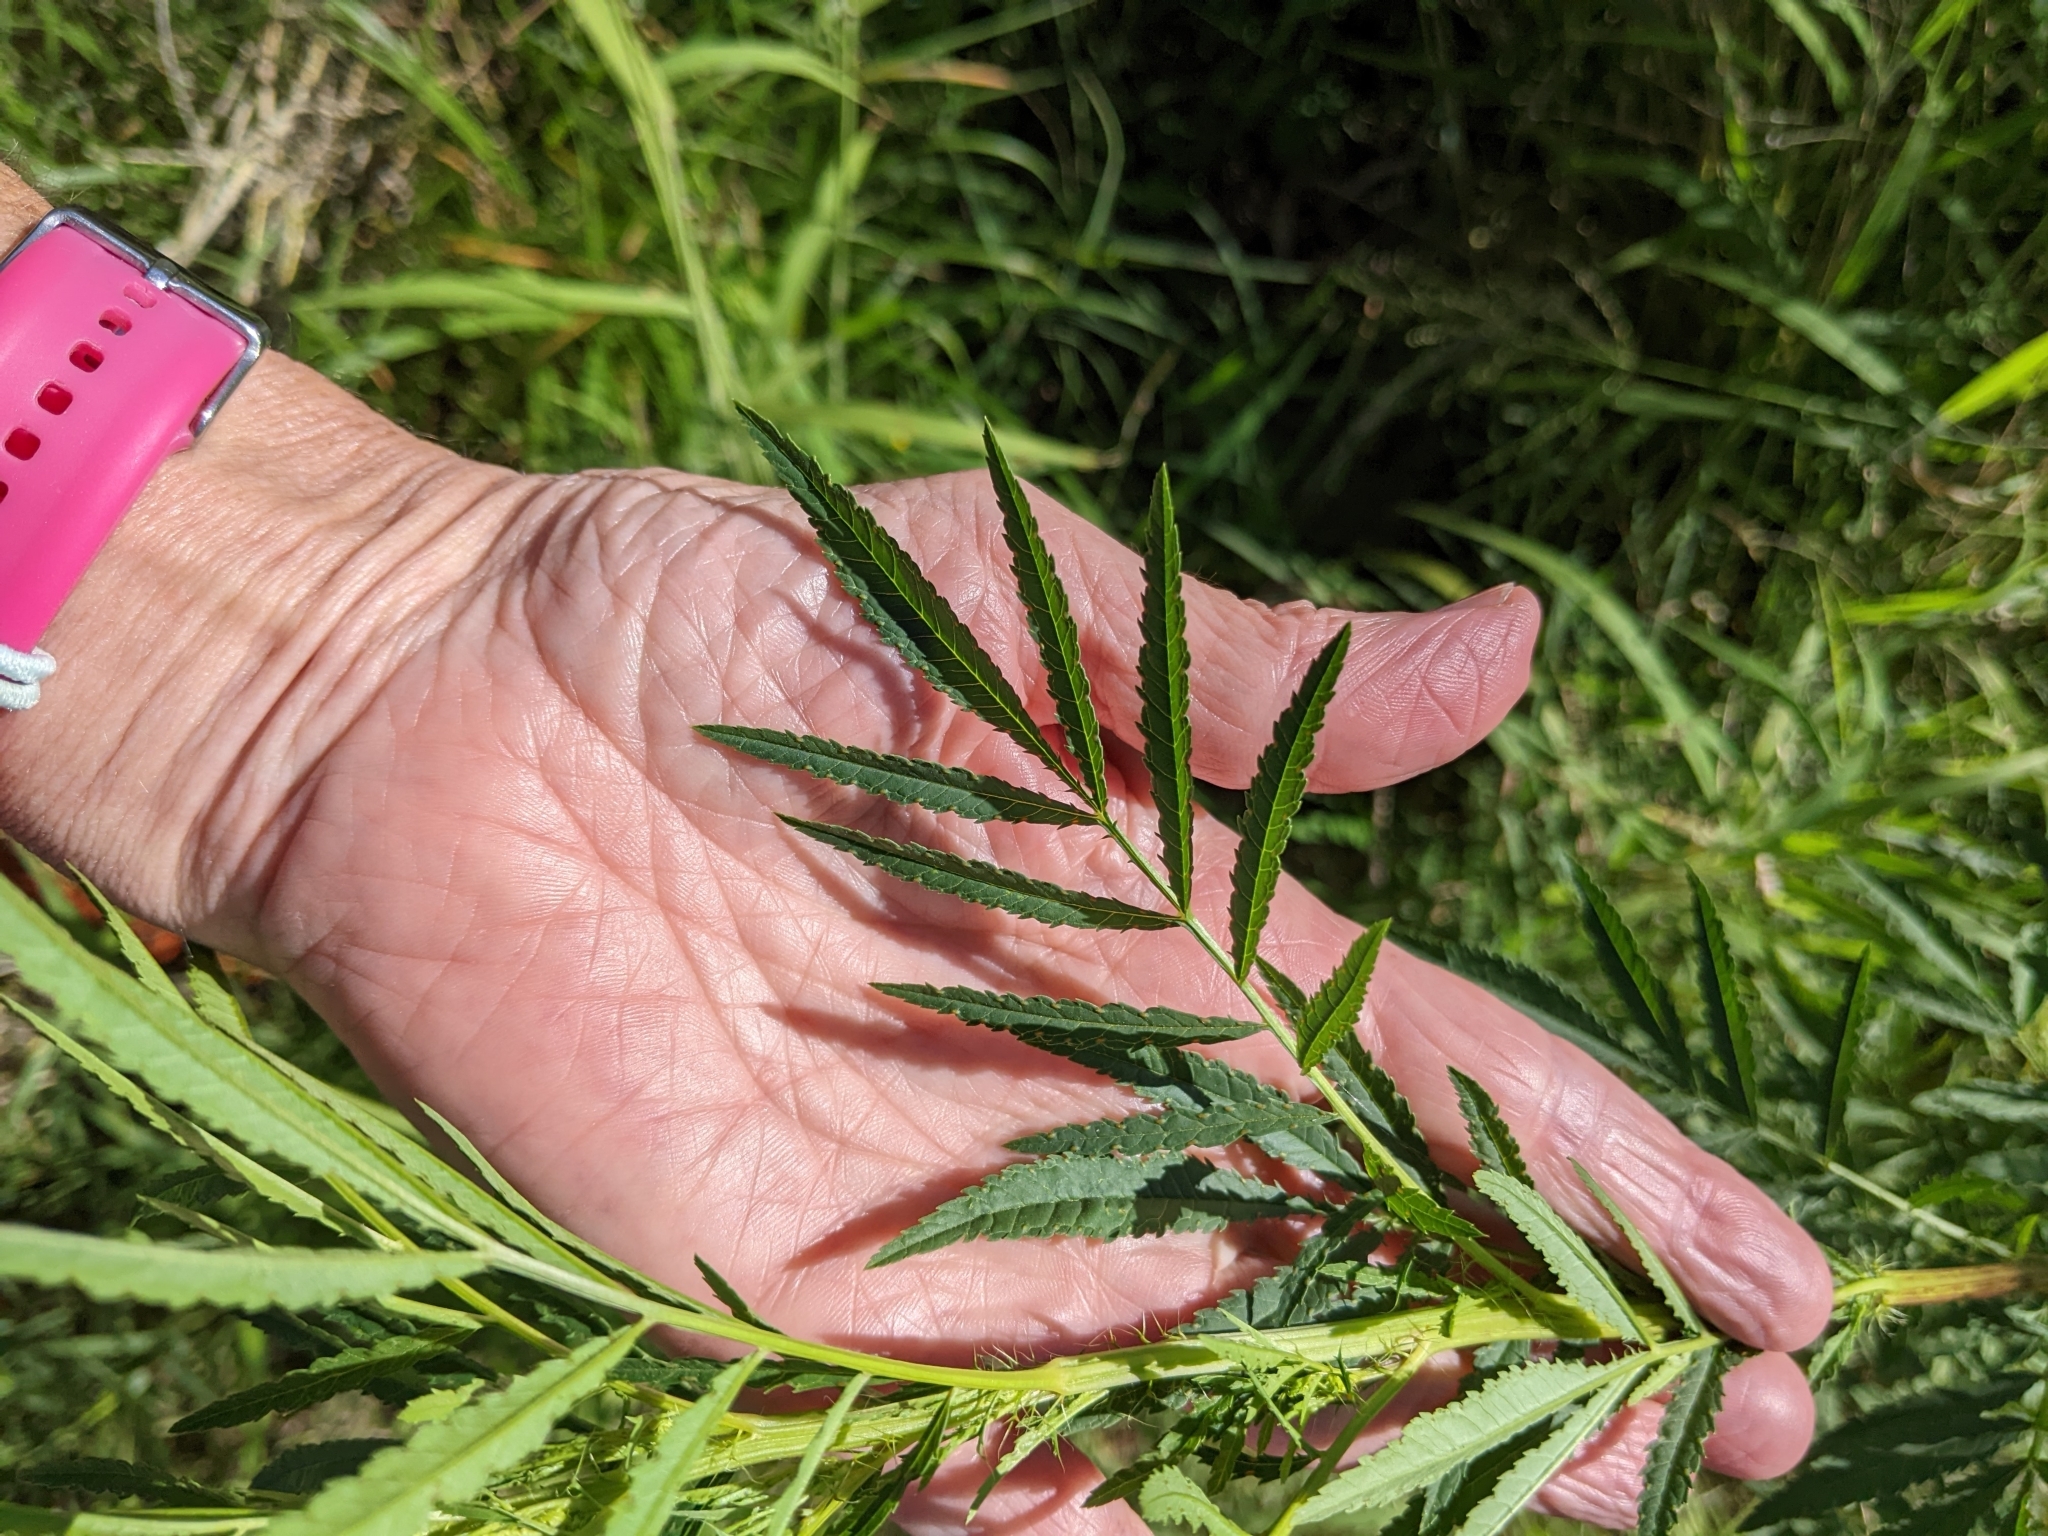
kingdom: Plantae
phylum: Tracheophyta
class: Magnoliopsida
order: Asterales
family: Asteraceae
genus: Tagetes
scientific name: Tagetes minuta
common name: Muster john henry
